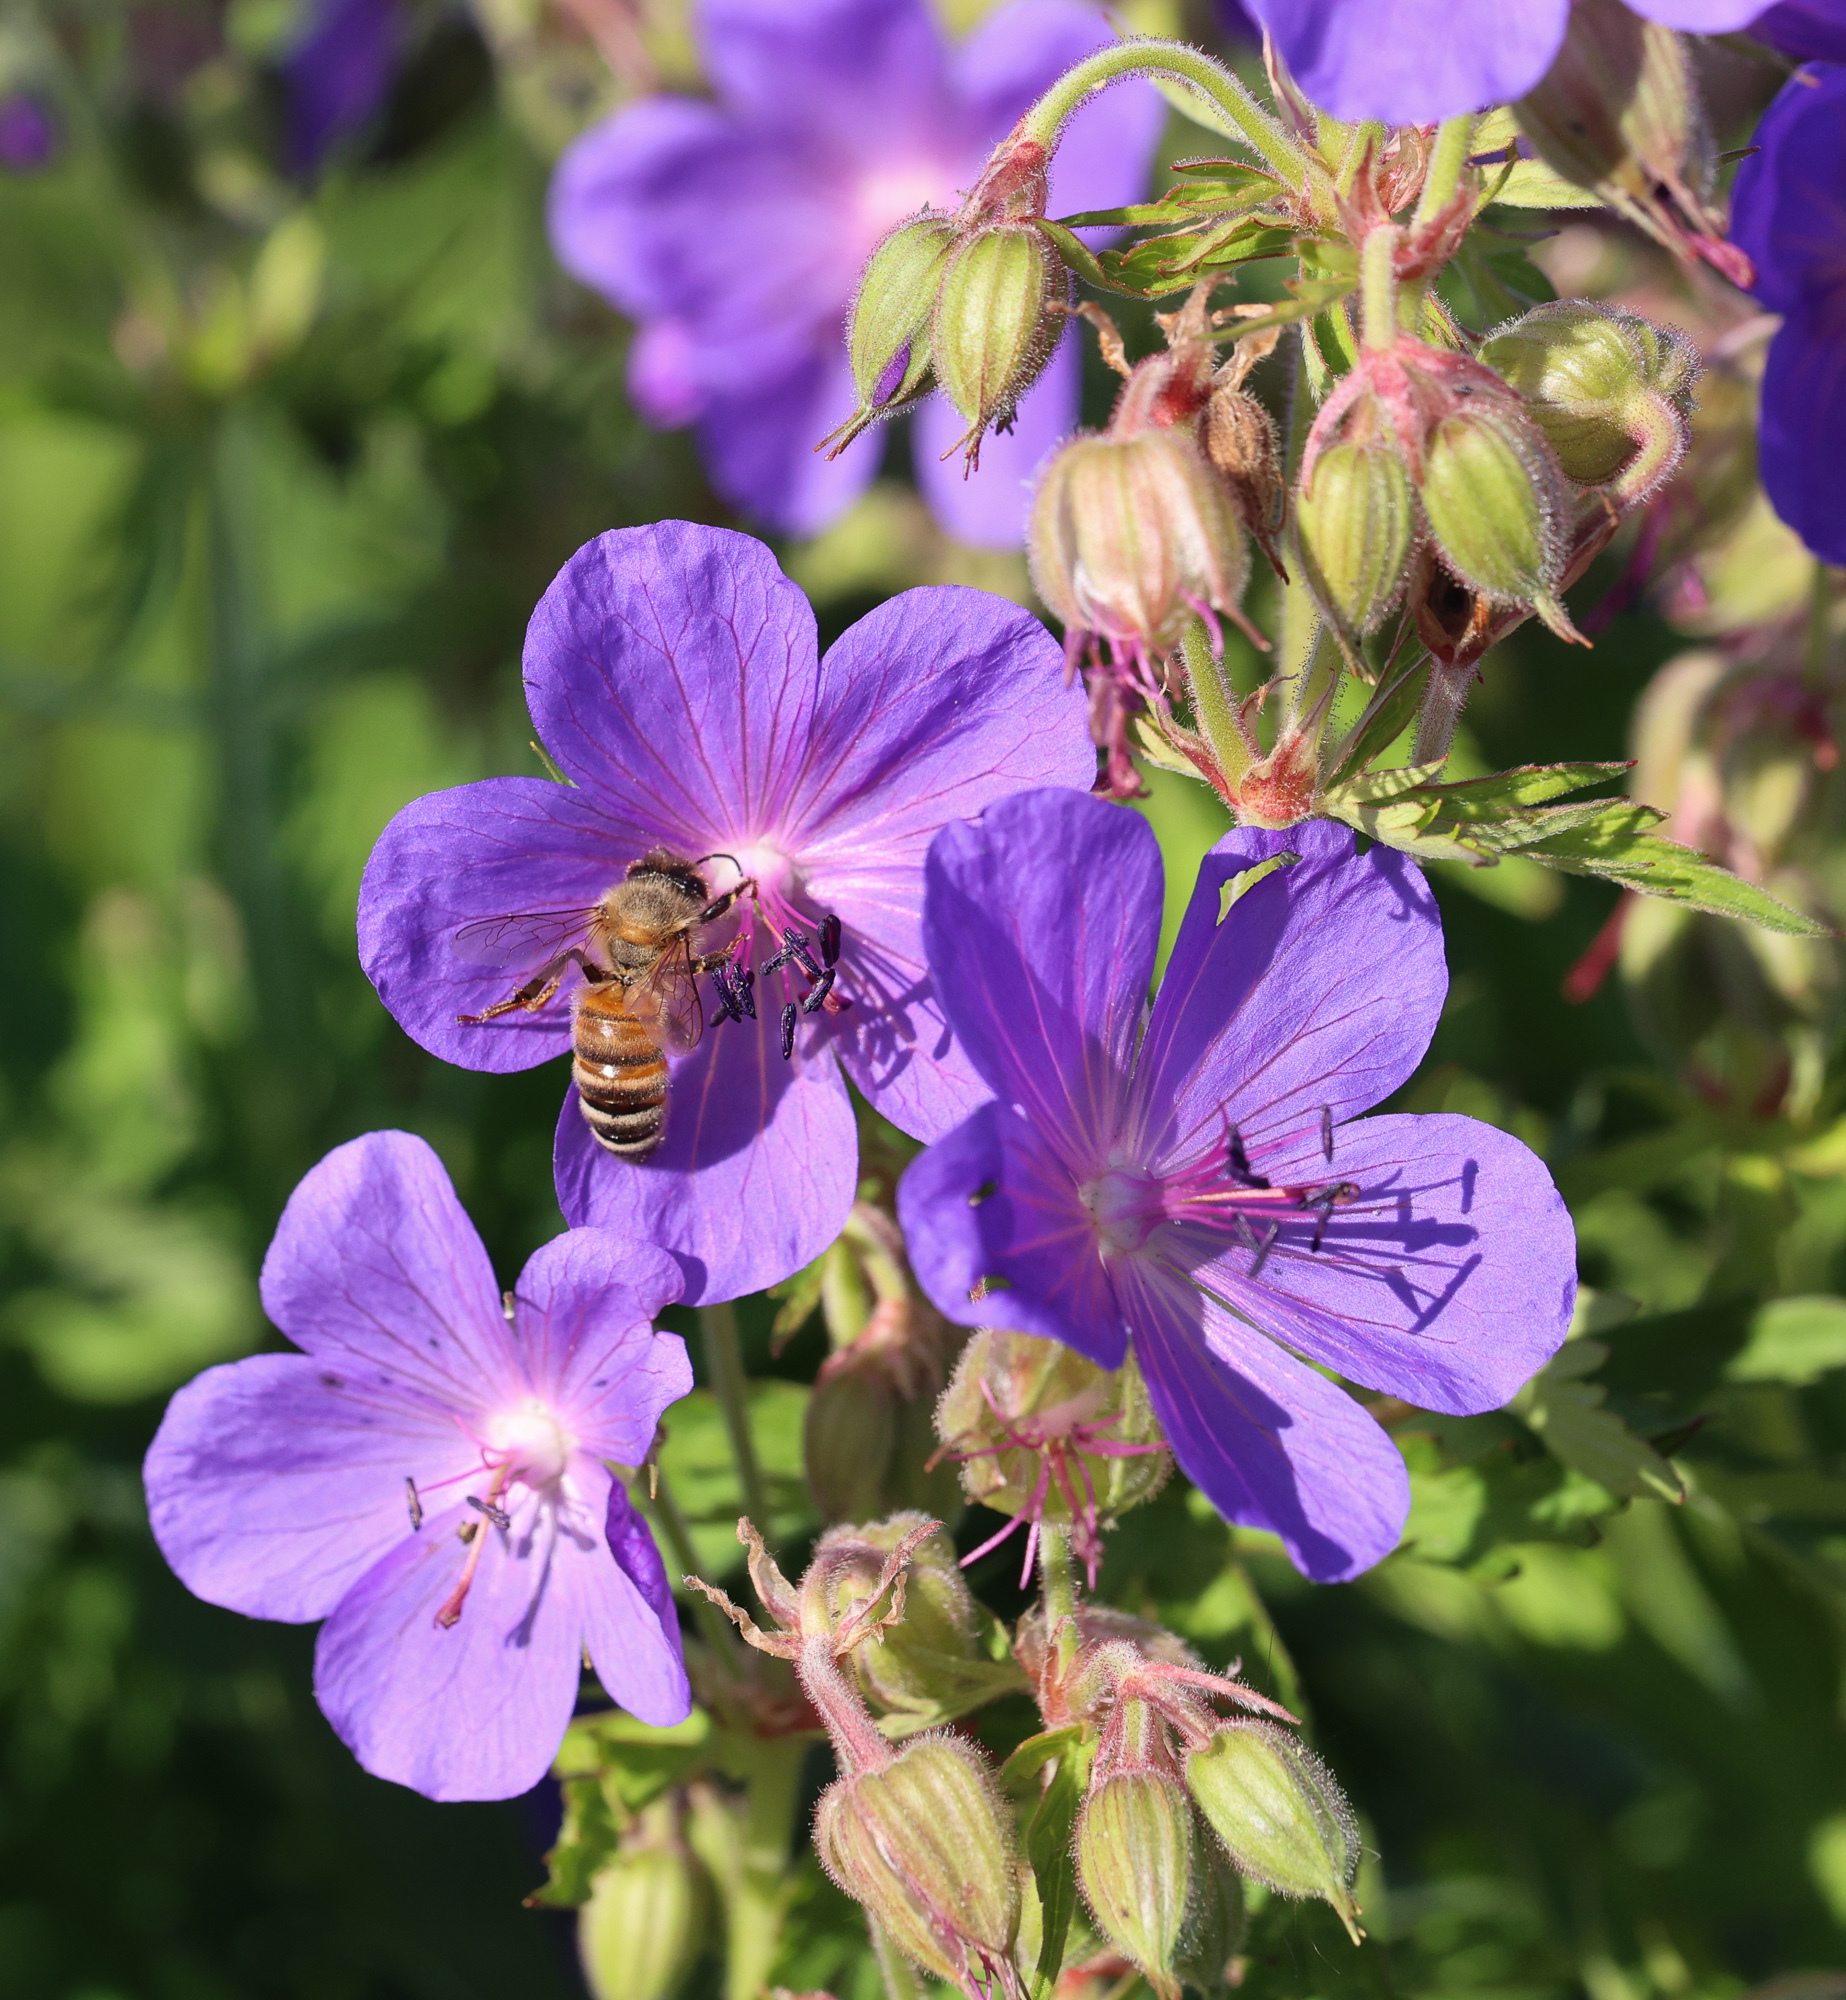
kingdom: Plantae
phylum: Tracheophyta
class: Magnoliopsida
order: Geraniales
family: Geraniaceae
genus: Geranium
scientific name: Geranium pratense
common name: Meadow crane's-bill
